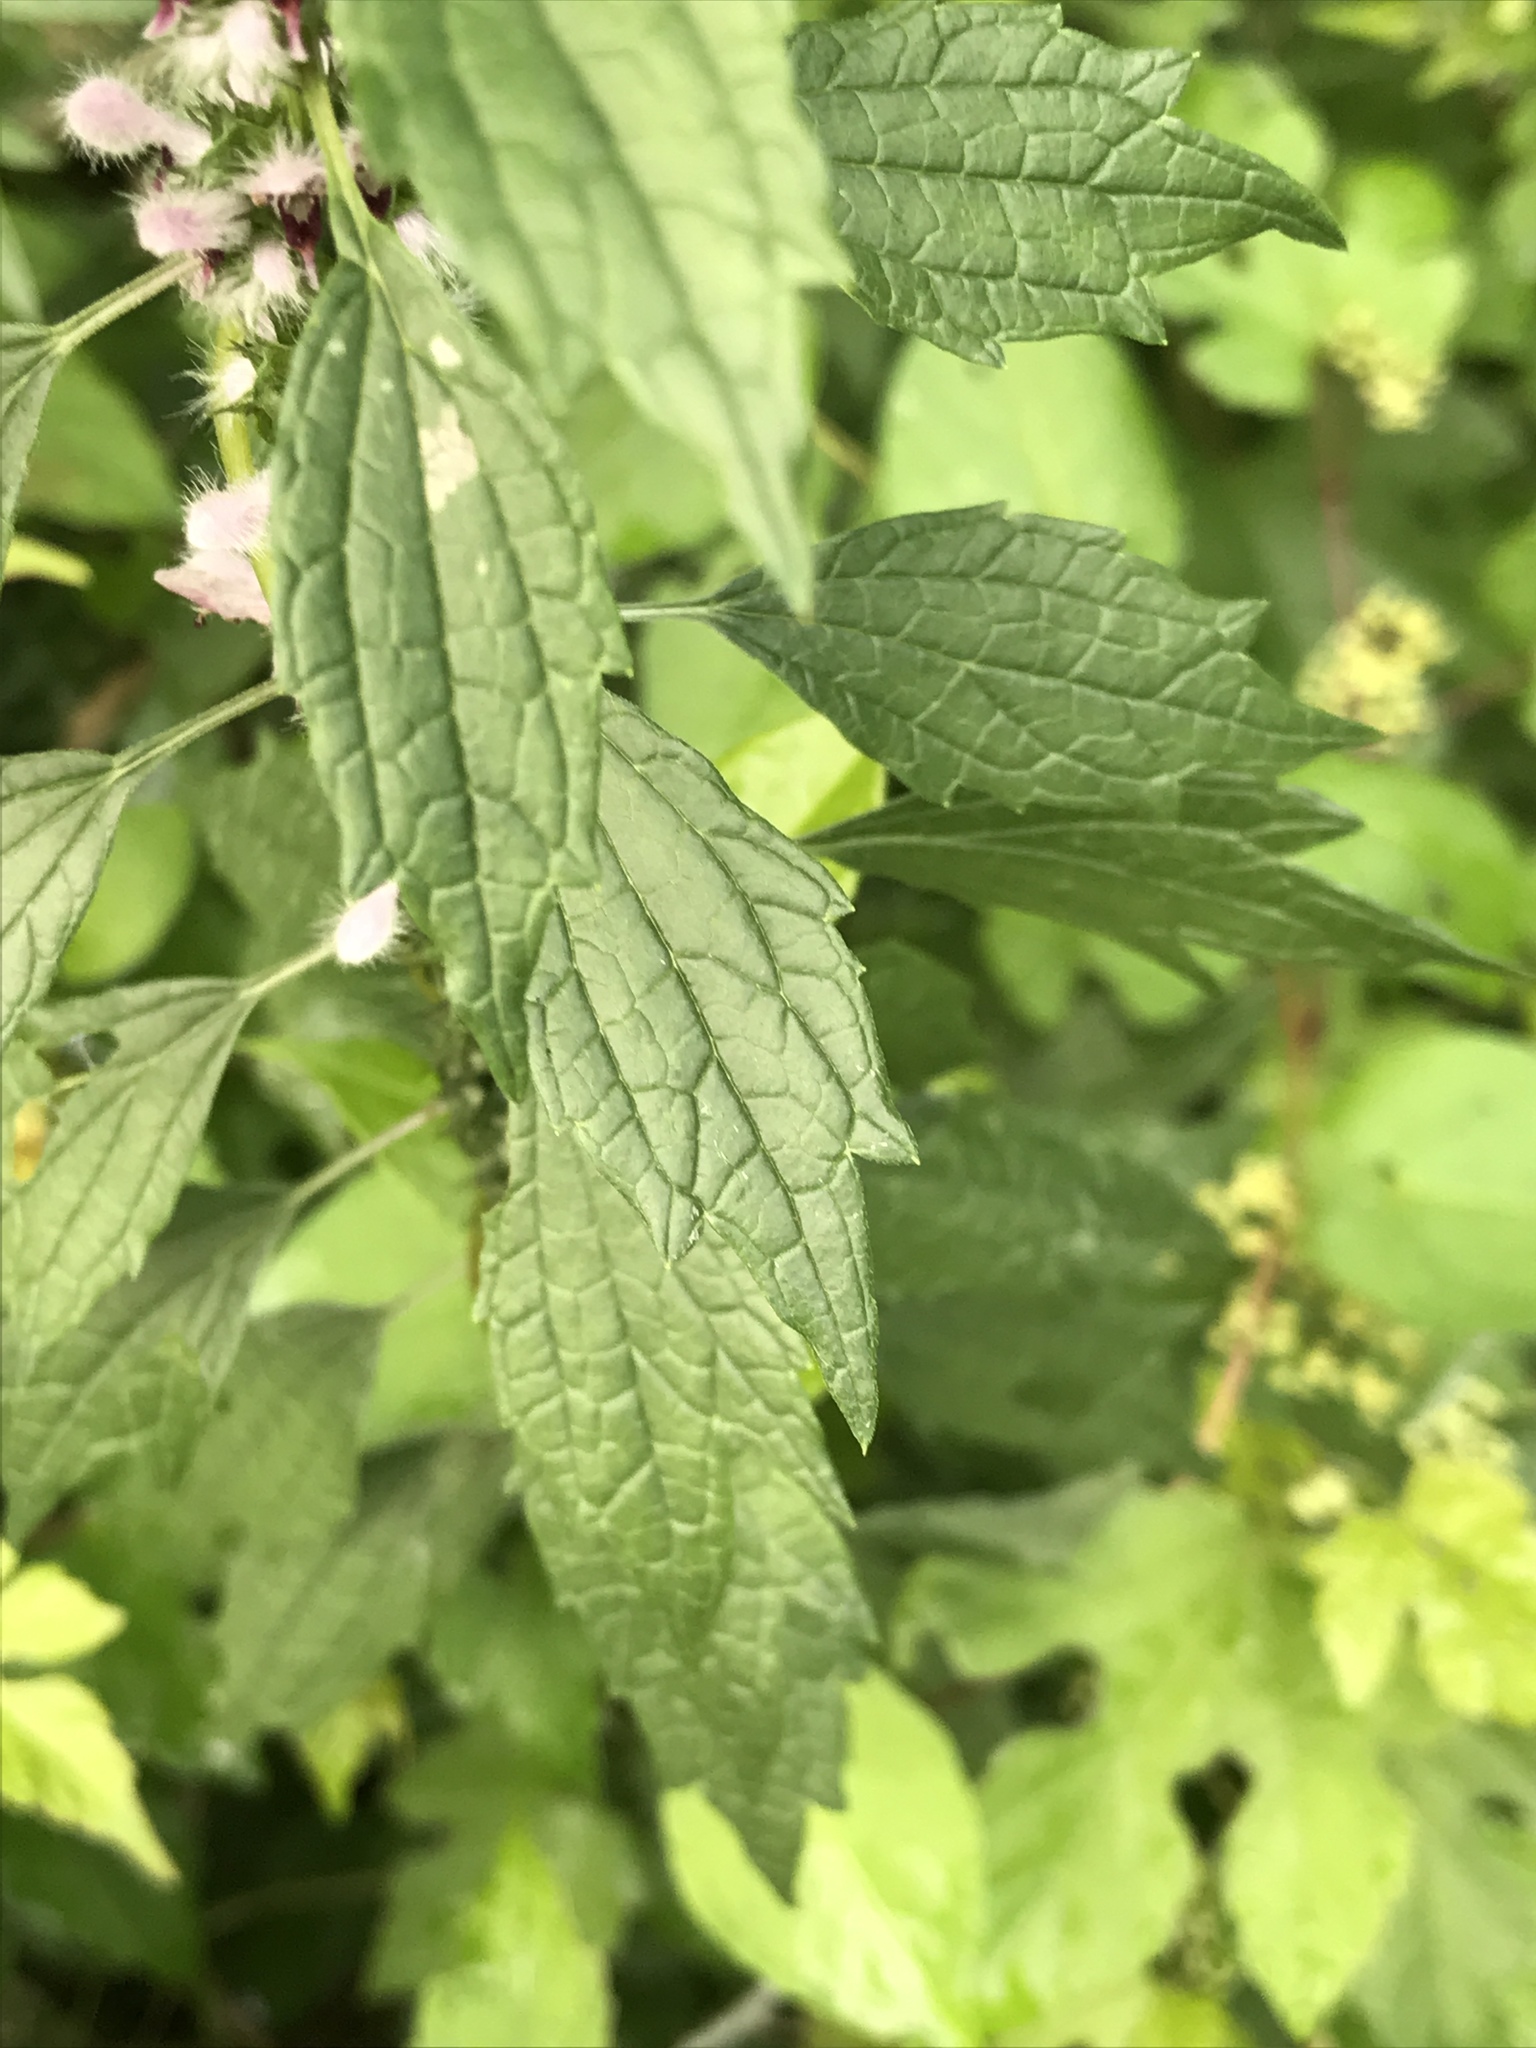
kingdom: Plantae
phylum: Tracheophyta
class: Magnoliopsida
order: Lamiales
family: Lamiaceae
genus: Leonurus
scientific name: Leonurus cardiaca
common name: Motherwort
